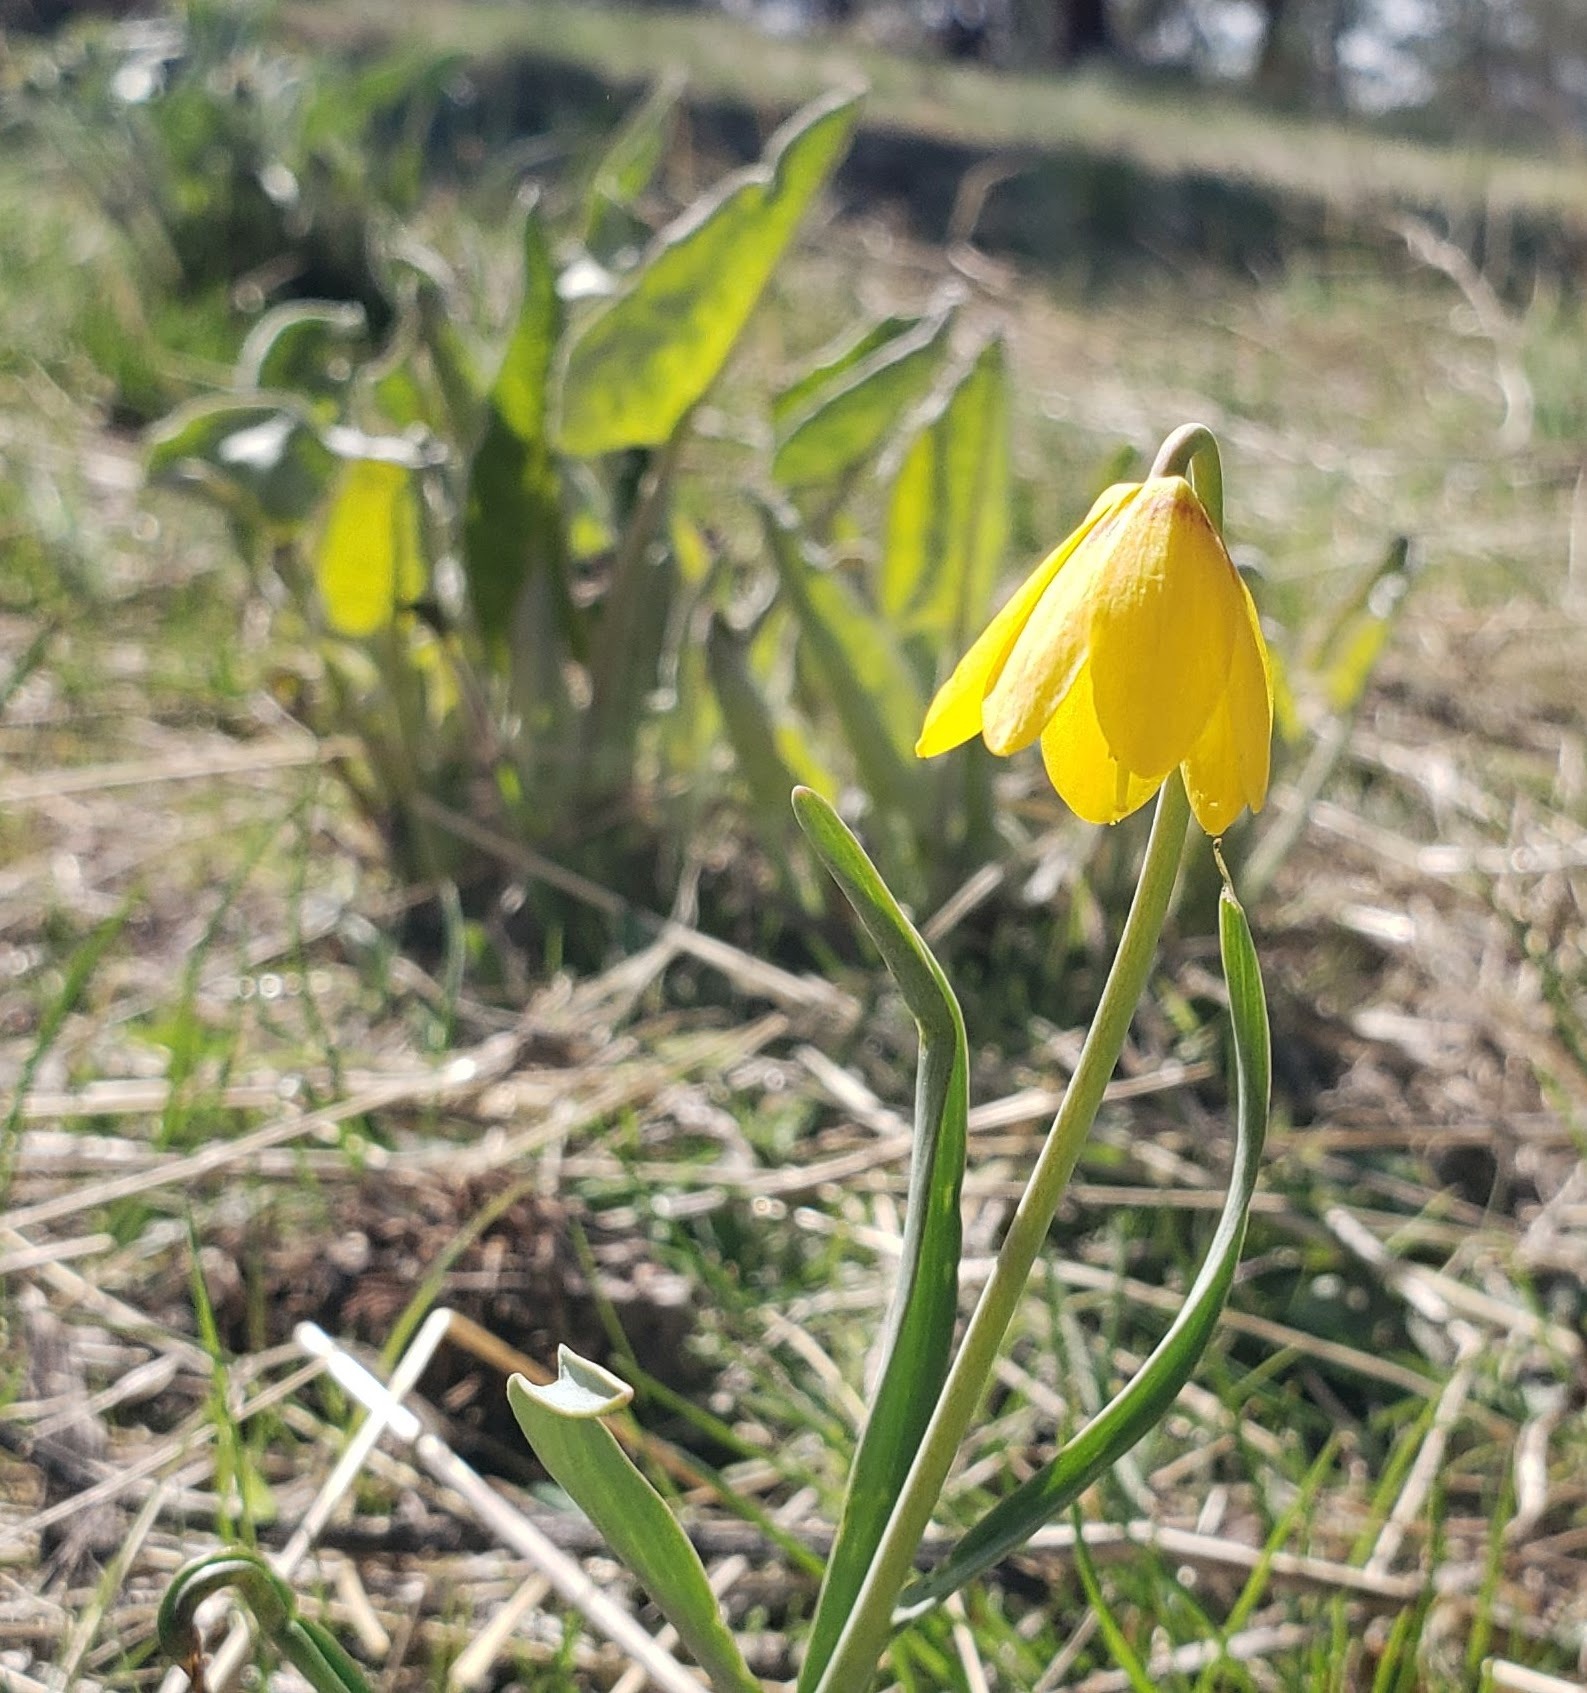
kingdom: Plantae
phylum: Tracheophyta
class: Liliopsida
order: Liliales
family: Liliaceae
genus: Fritillaria
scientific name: Fritillaria pudica
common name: Yellow fritillary
